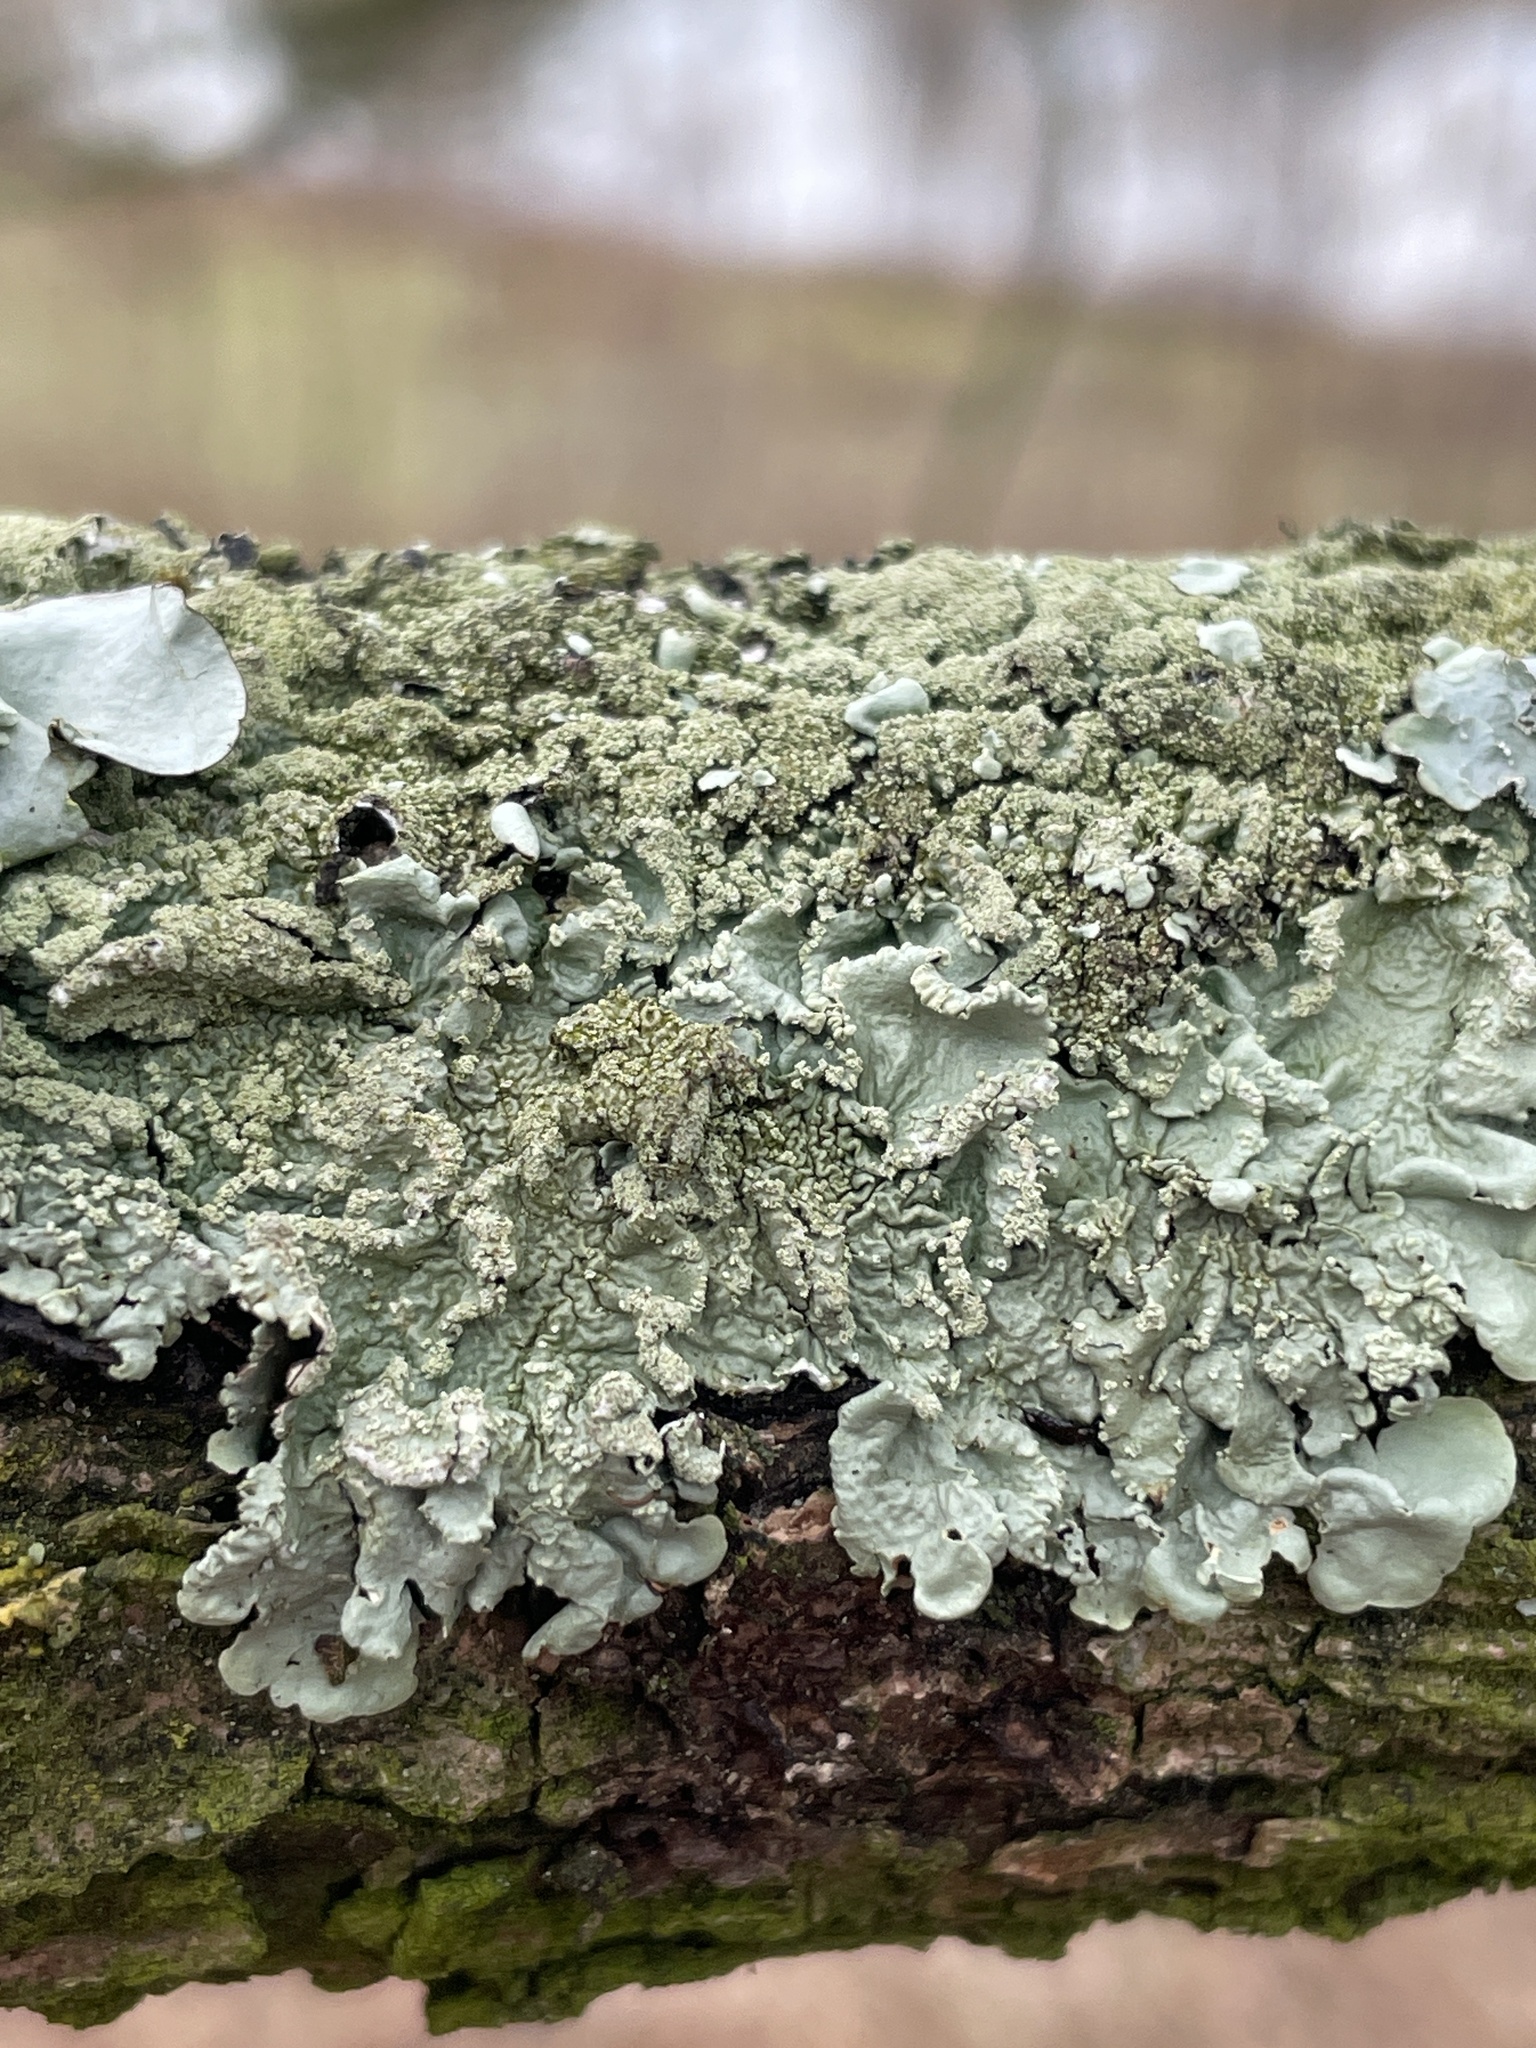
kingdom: Fungi
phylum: Ascomycota
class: Lecanoromycetes
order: Lecanorales
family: Parmeliaceae
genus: Flavoparmelia
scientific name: Flavoparmelia caperata
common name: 40-mile per hour lichen
